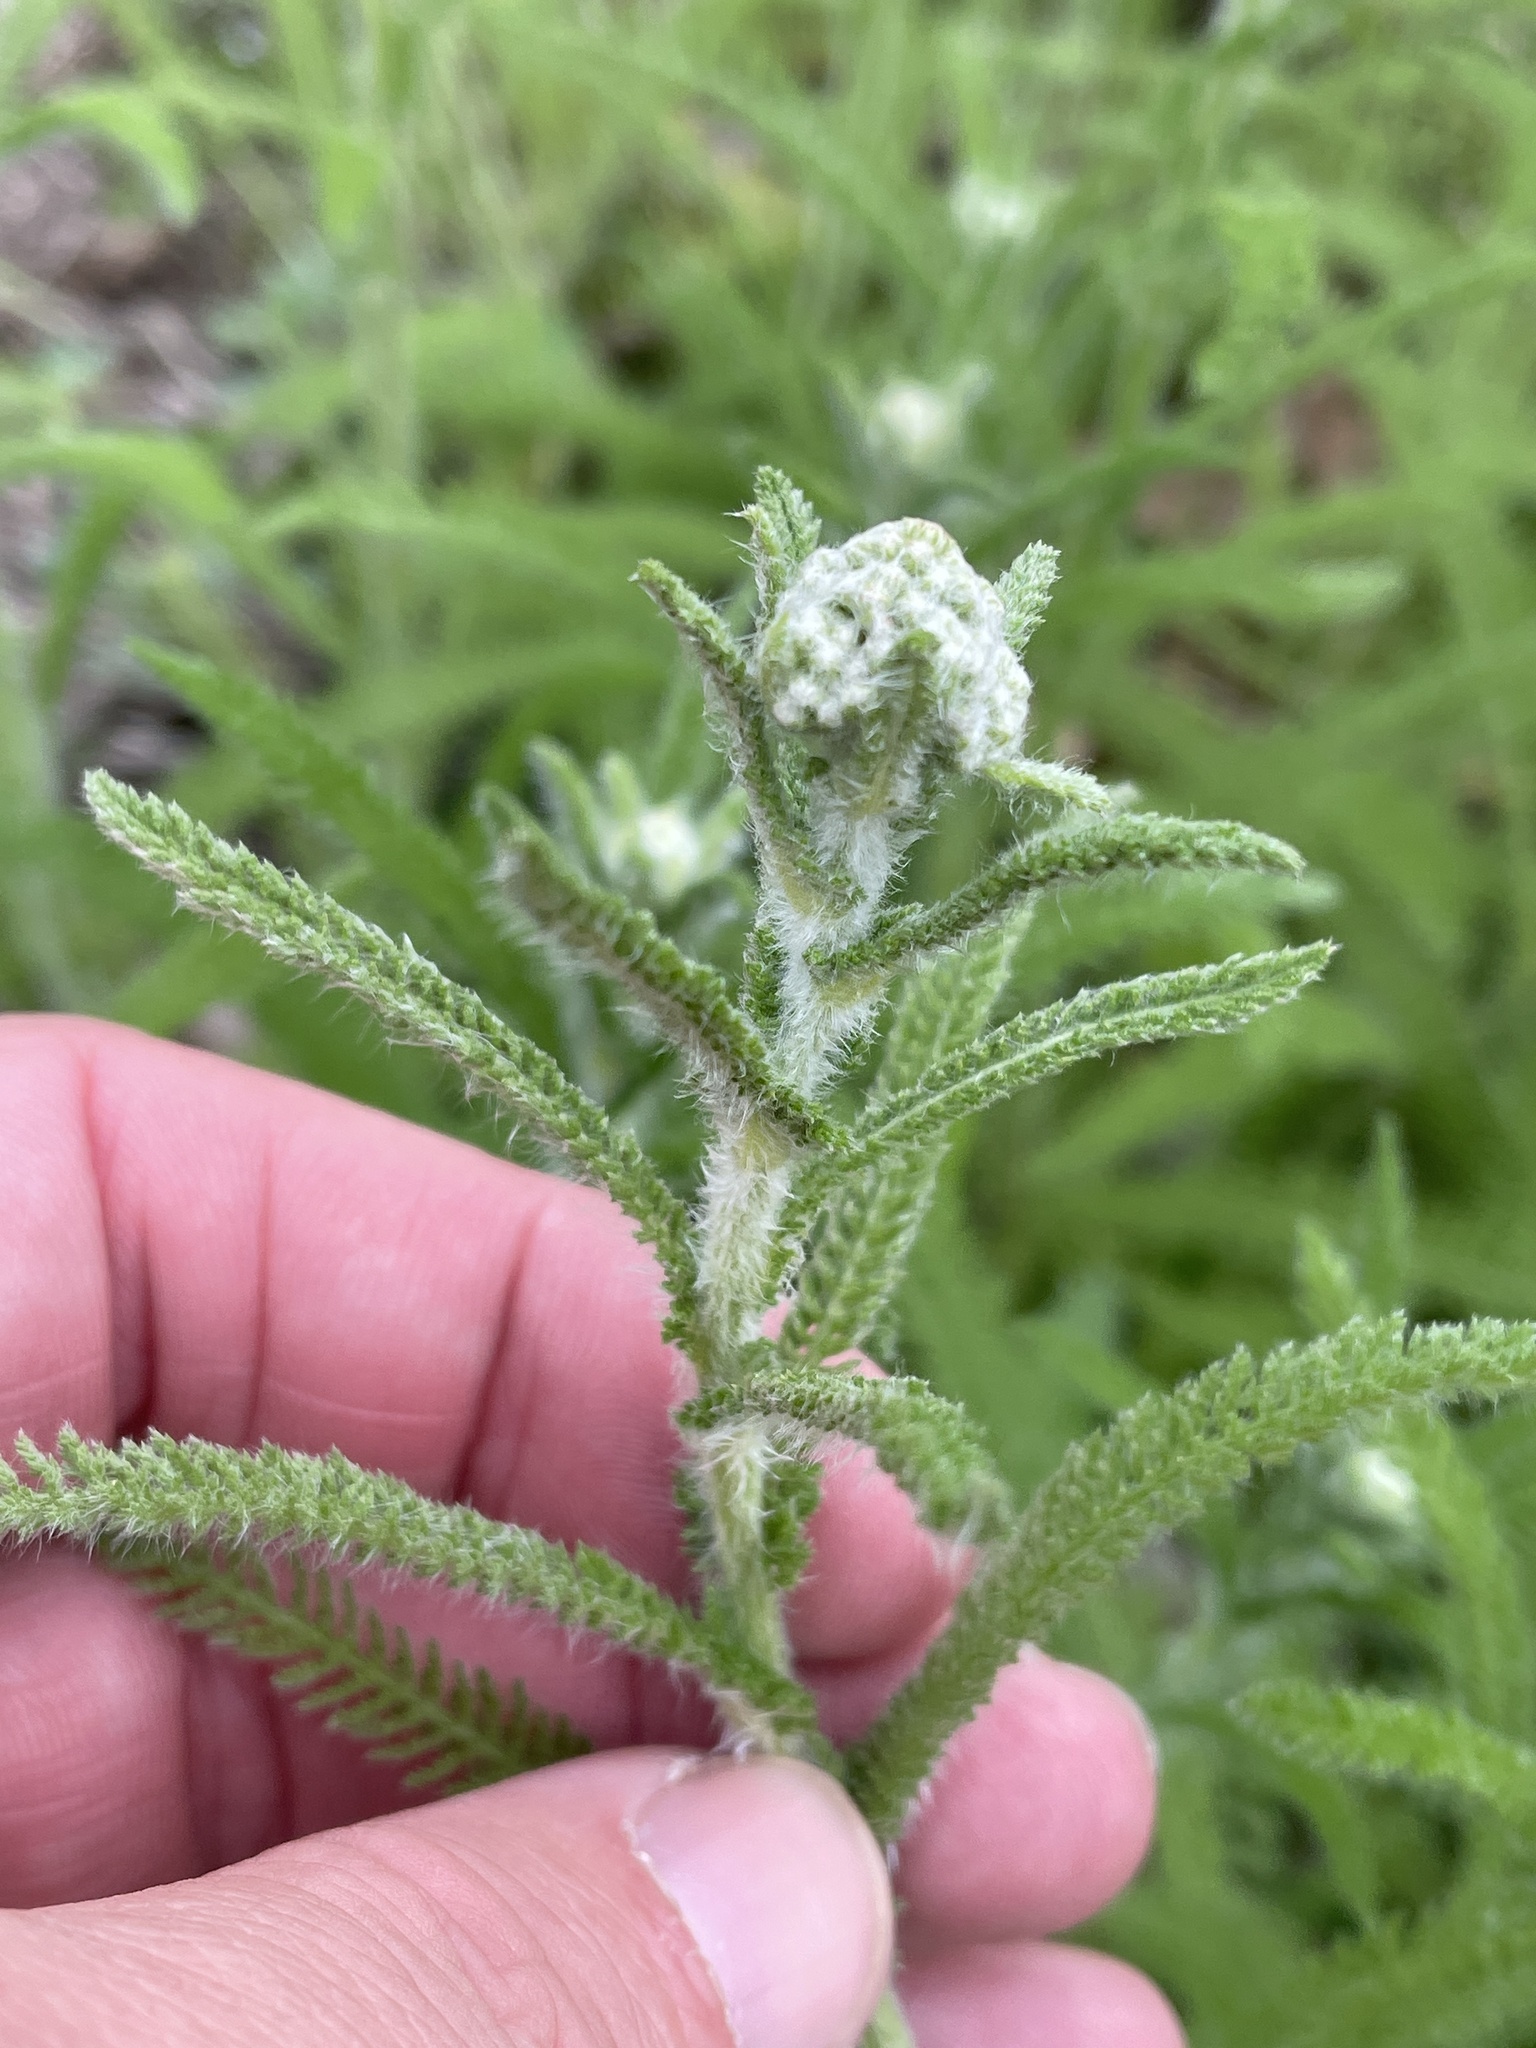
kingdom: Plantae
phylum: Tracheophyta
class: Magnoliopsida
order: Asterales
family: Asteraceae
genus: Achillea
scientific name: Achillea millefolium
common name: Yarrow
